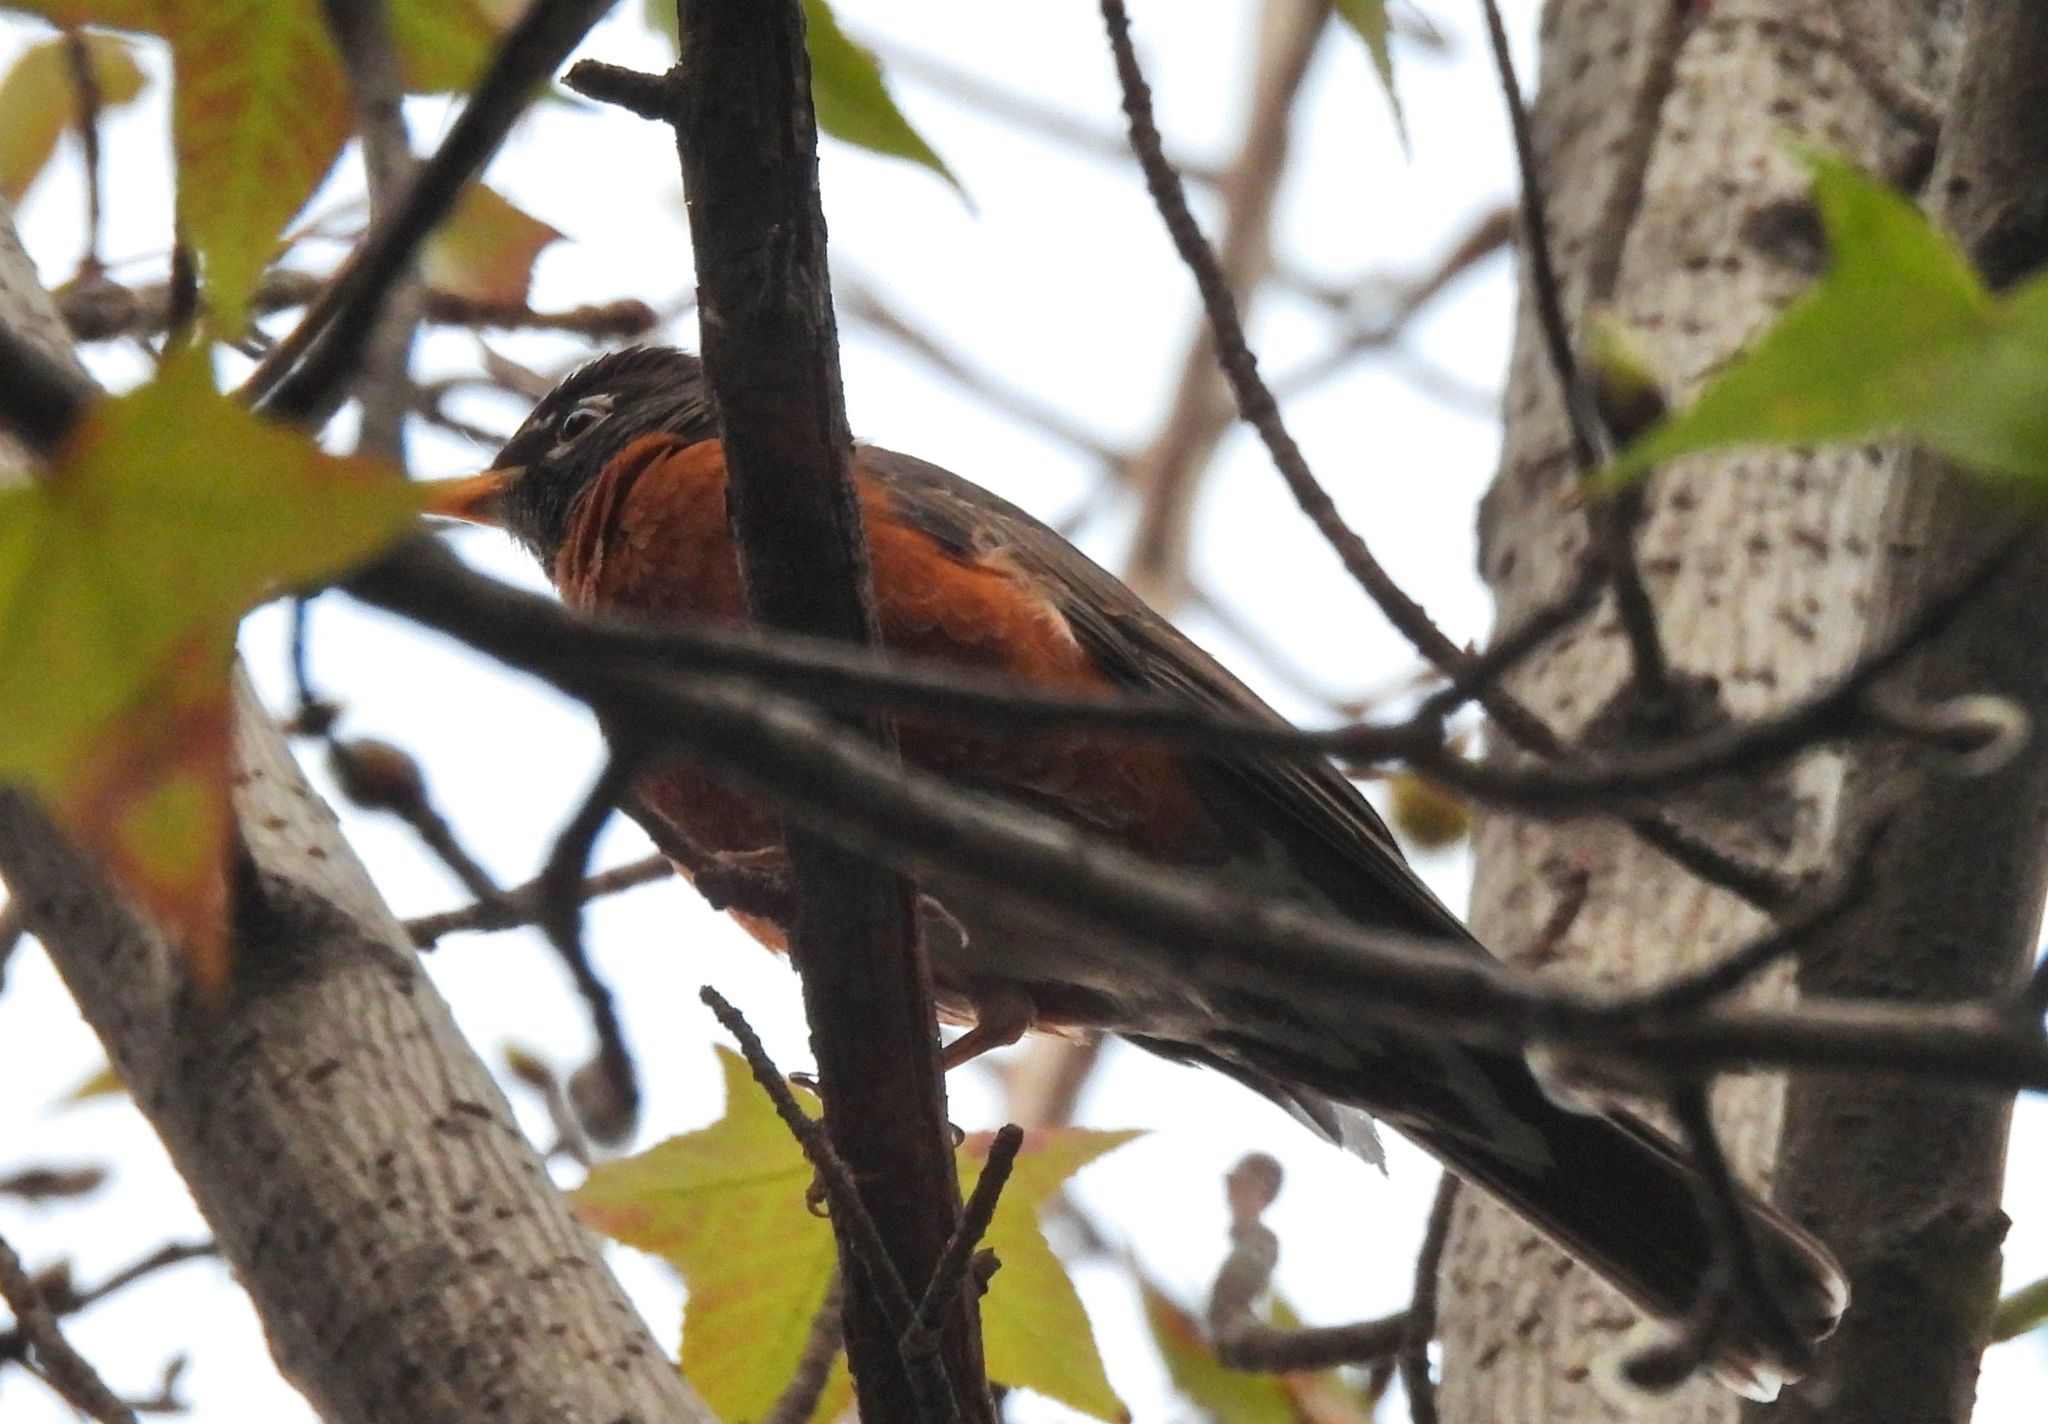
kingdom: Animalia
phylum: Chordata
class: Aves
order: Passeriformes
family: Turdidae
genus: Turdus
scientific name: Turdus migratorius
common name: American robin
